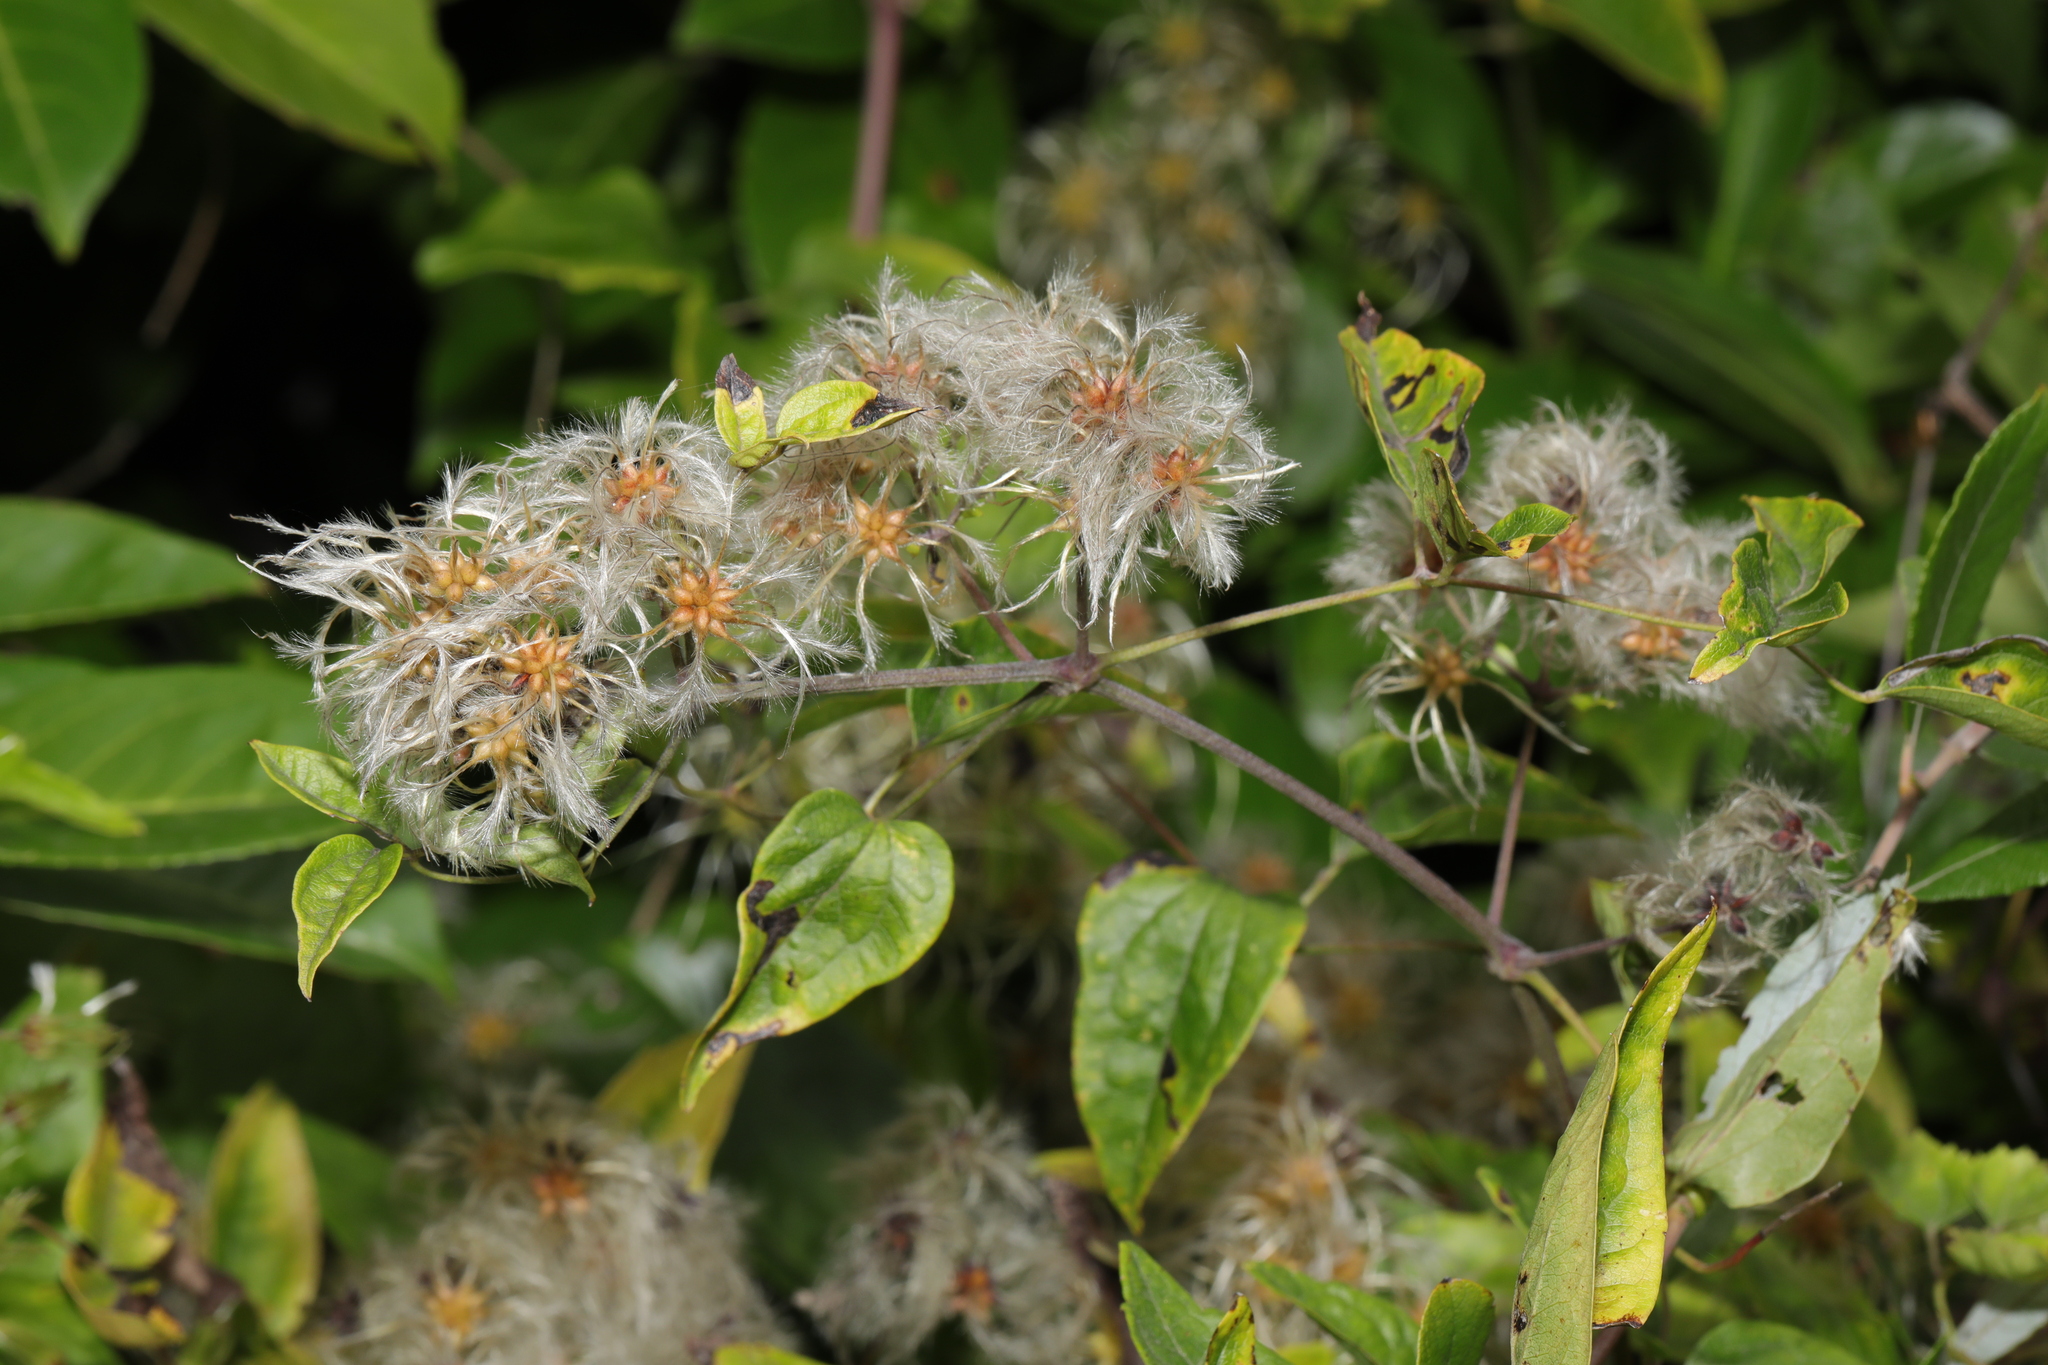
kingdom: Plantae
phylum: Tracheophyta
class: Magnoliopsida
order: Ranunculales
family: Ranunculaceae
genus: Clematis
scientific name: Clematis vitalba
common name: Evergreen clematis
